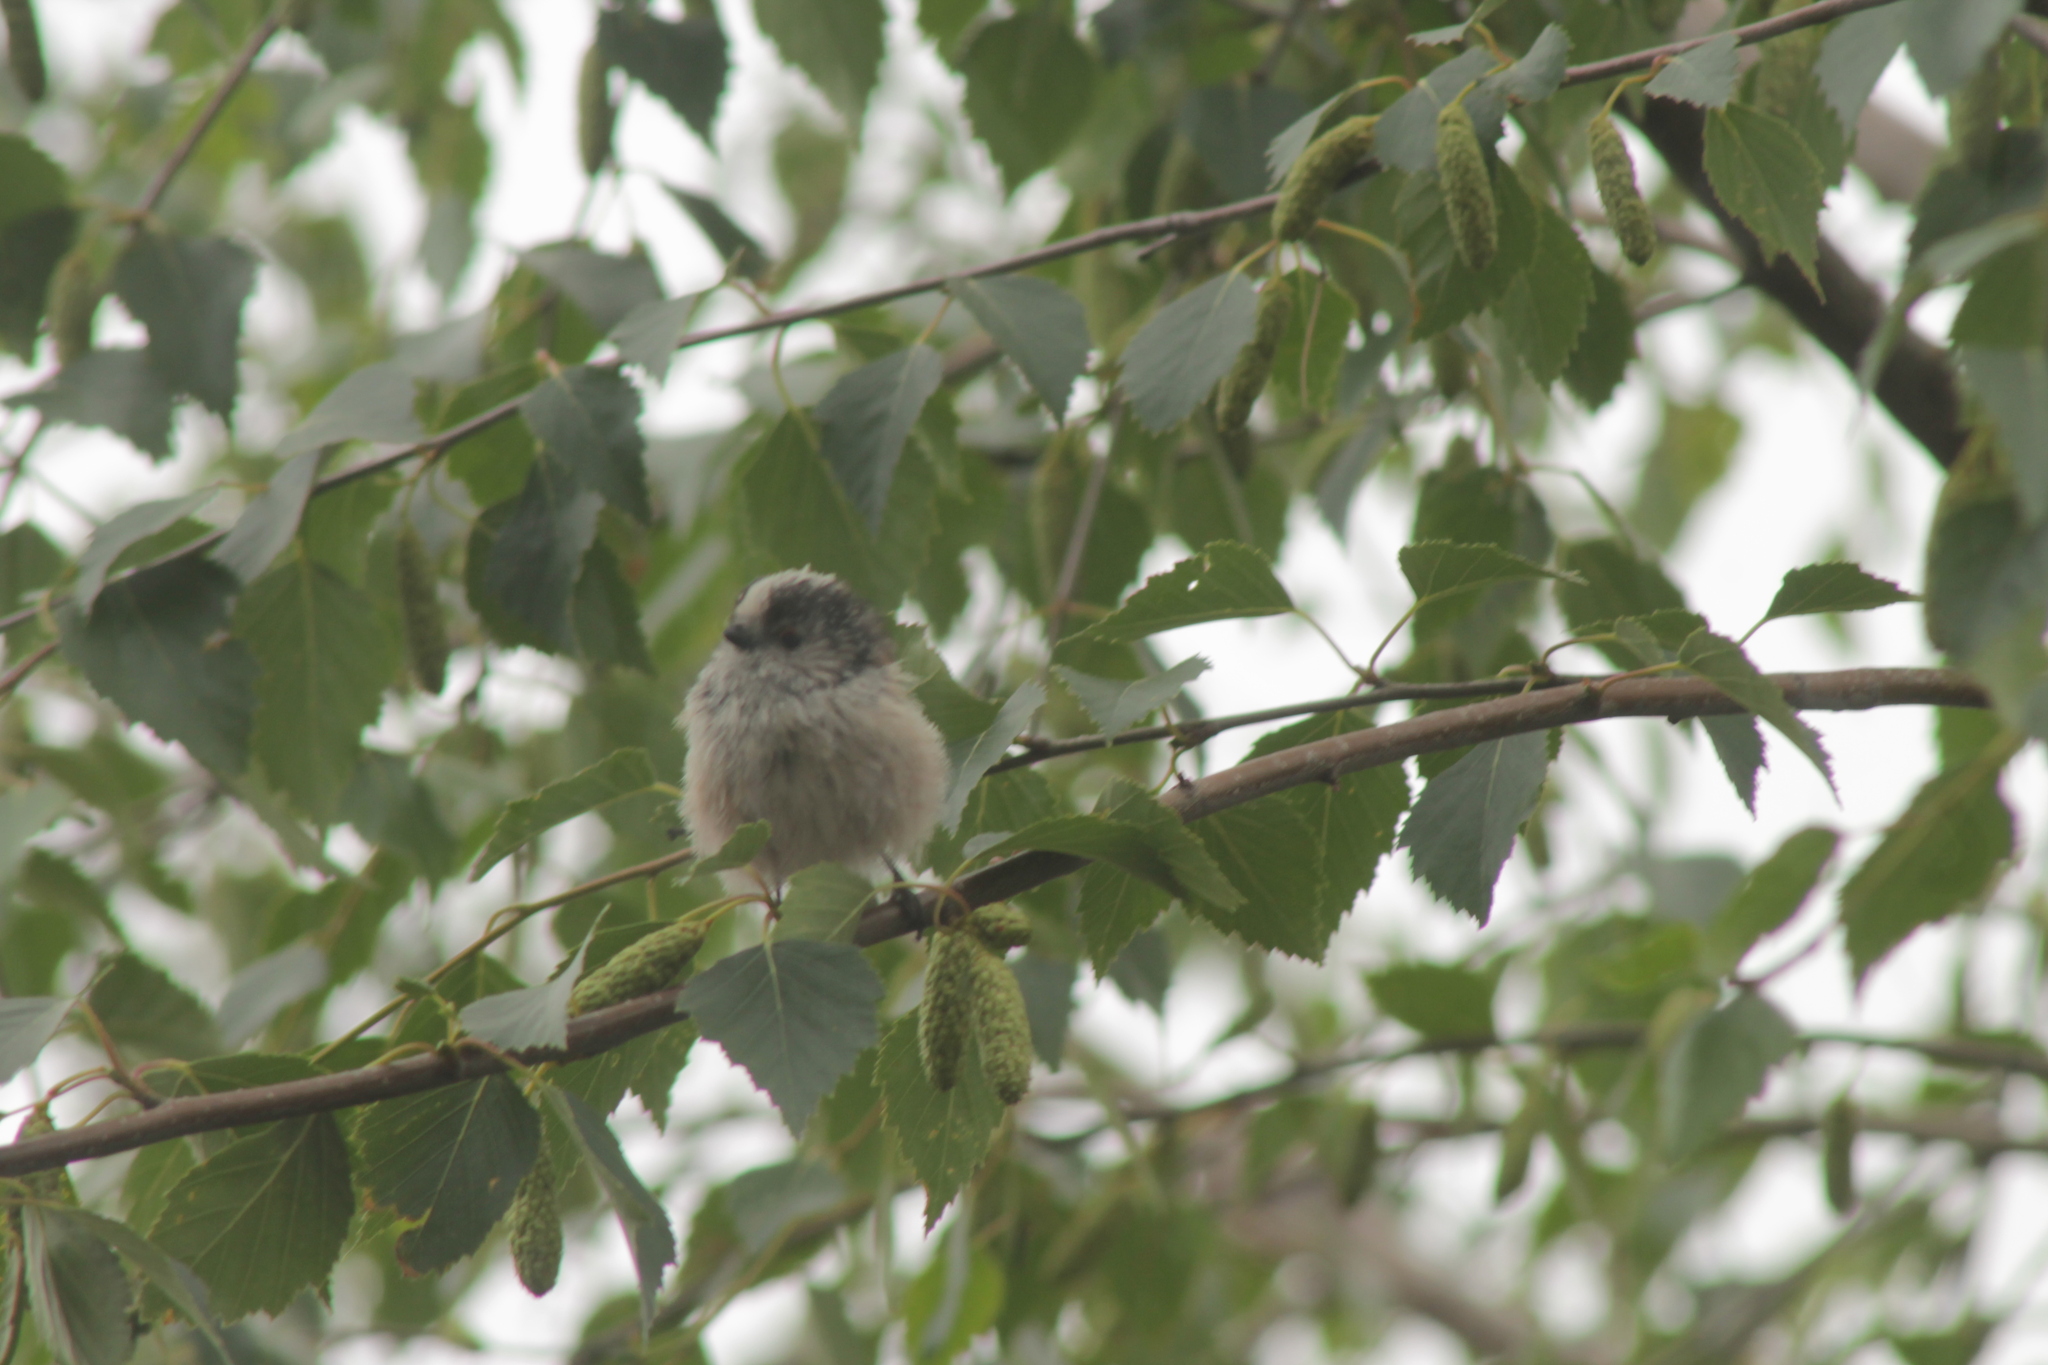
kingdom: Animalia
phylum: Chordata
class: Aves
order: Passeriformes
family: Aegithalidae
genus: Aegithalos
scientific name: Aegithalos caudatus
